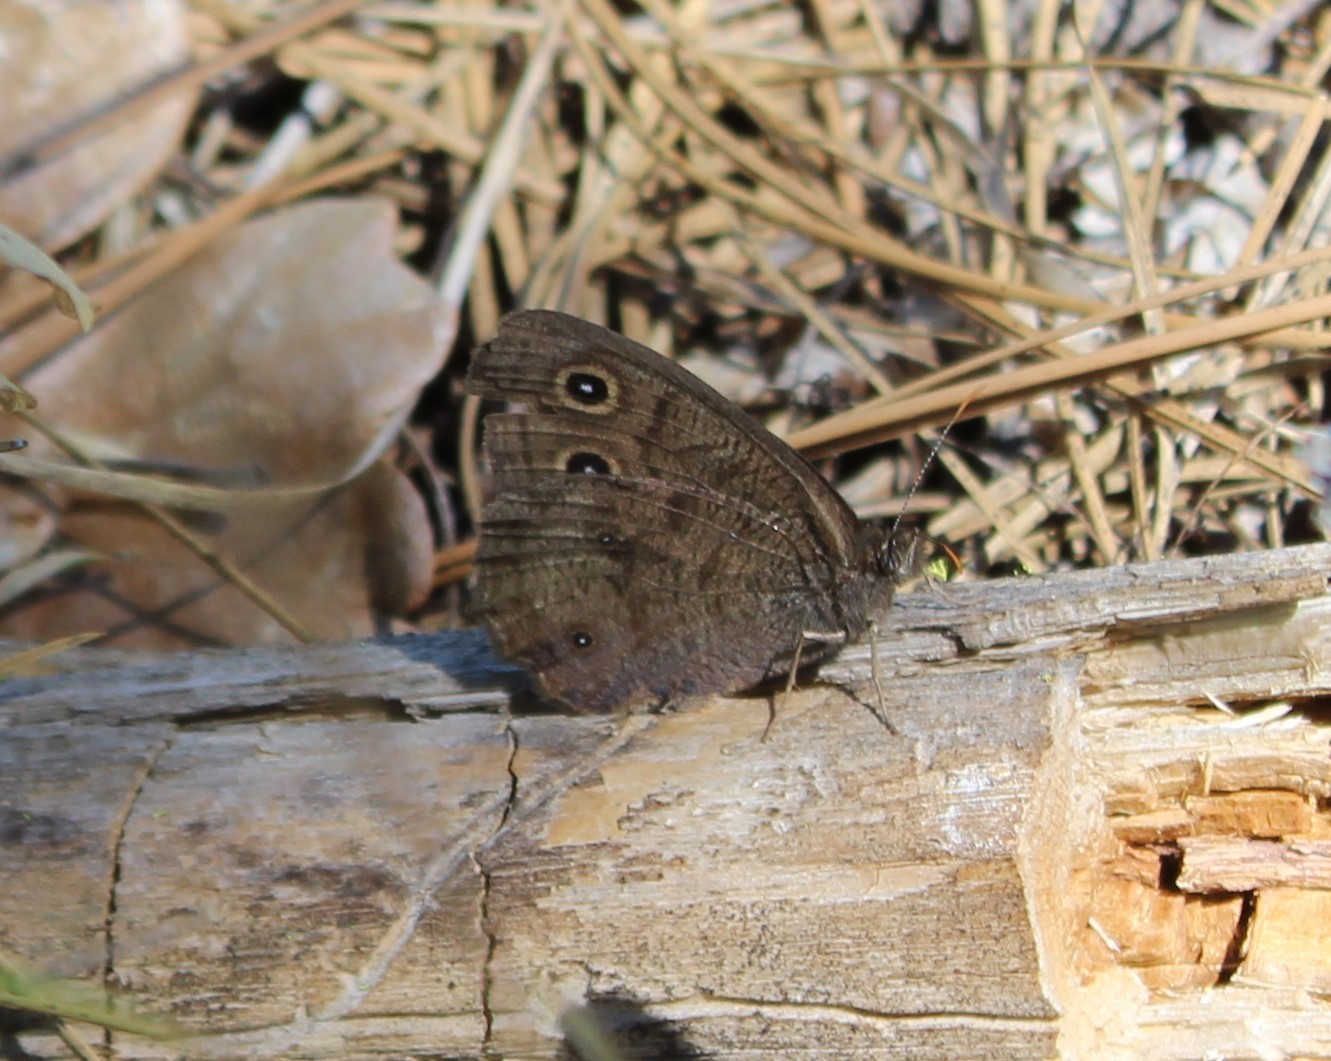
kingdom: Animalia
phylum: Arthropoda
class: Insecta
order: Lepidoptera
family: Nymphalidae
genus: Cercyonis
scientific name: Cercyonis pegala
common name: Common wood-nymph
